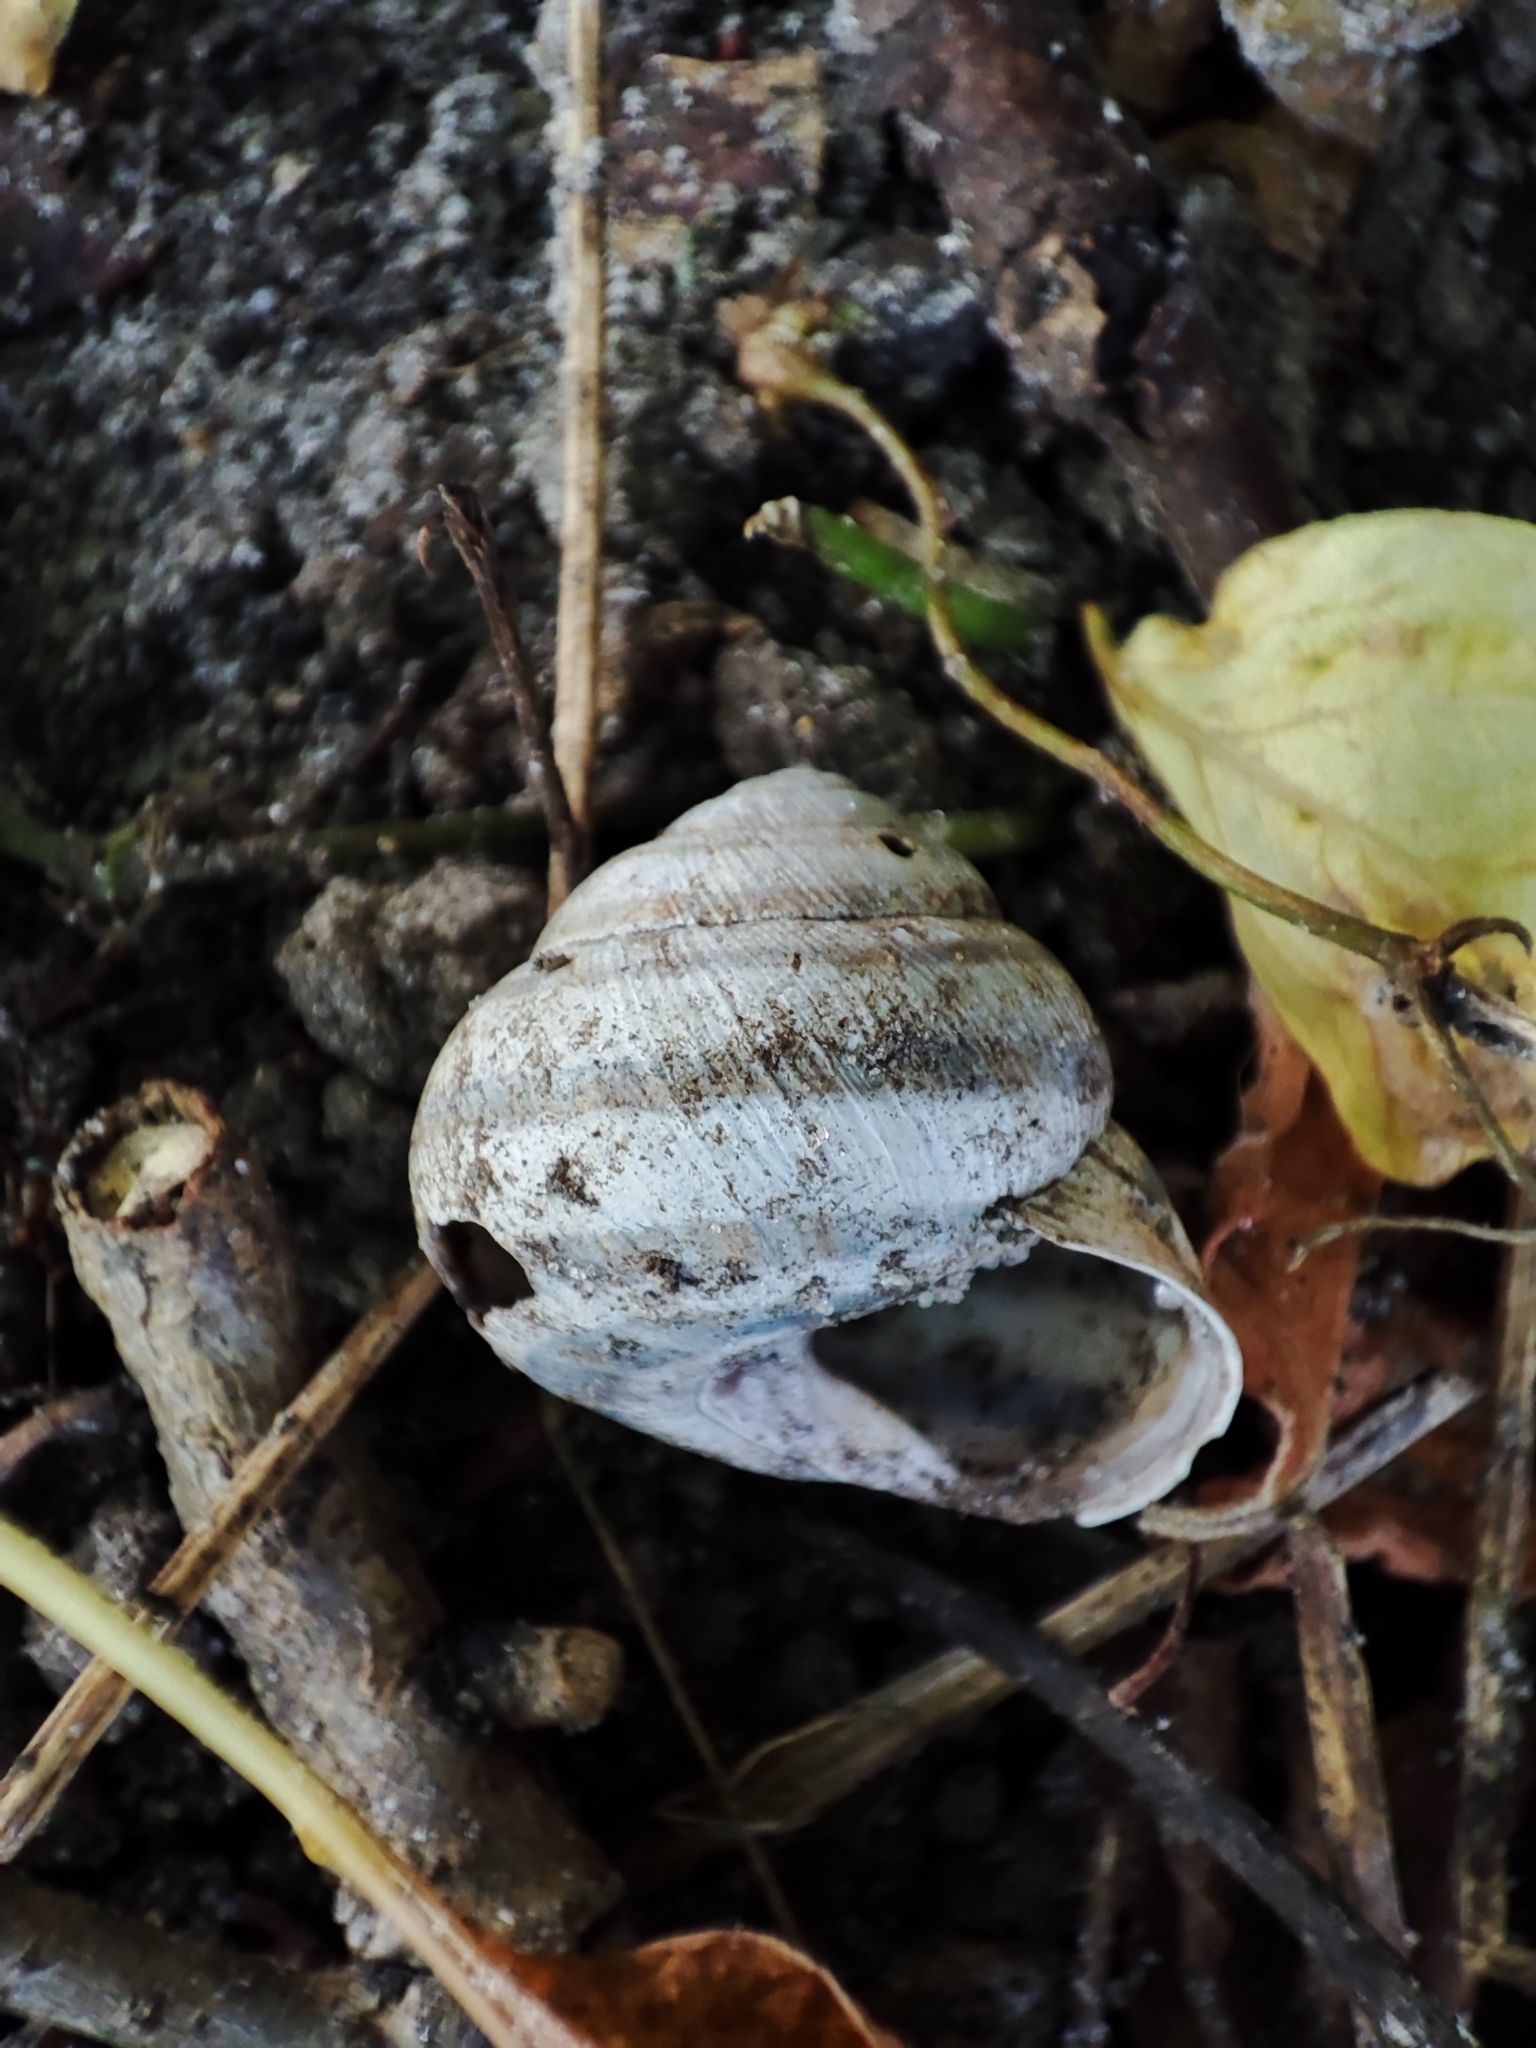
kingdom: Animalia
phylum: Mollusca
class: Gastropoda
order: Stylommatophora
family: Helicidae
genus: Caucasotachea
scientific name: Caucasotachea vindobonensis
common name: European helicid land snail
